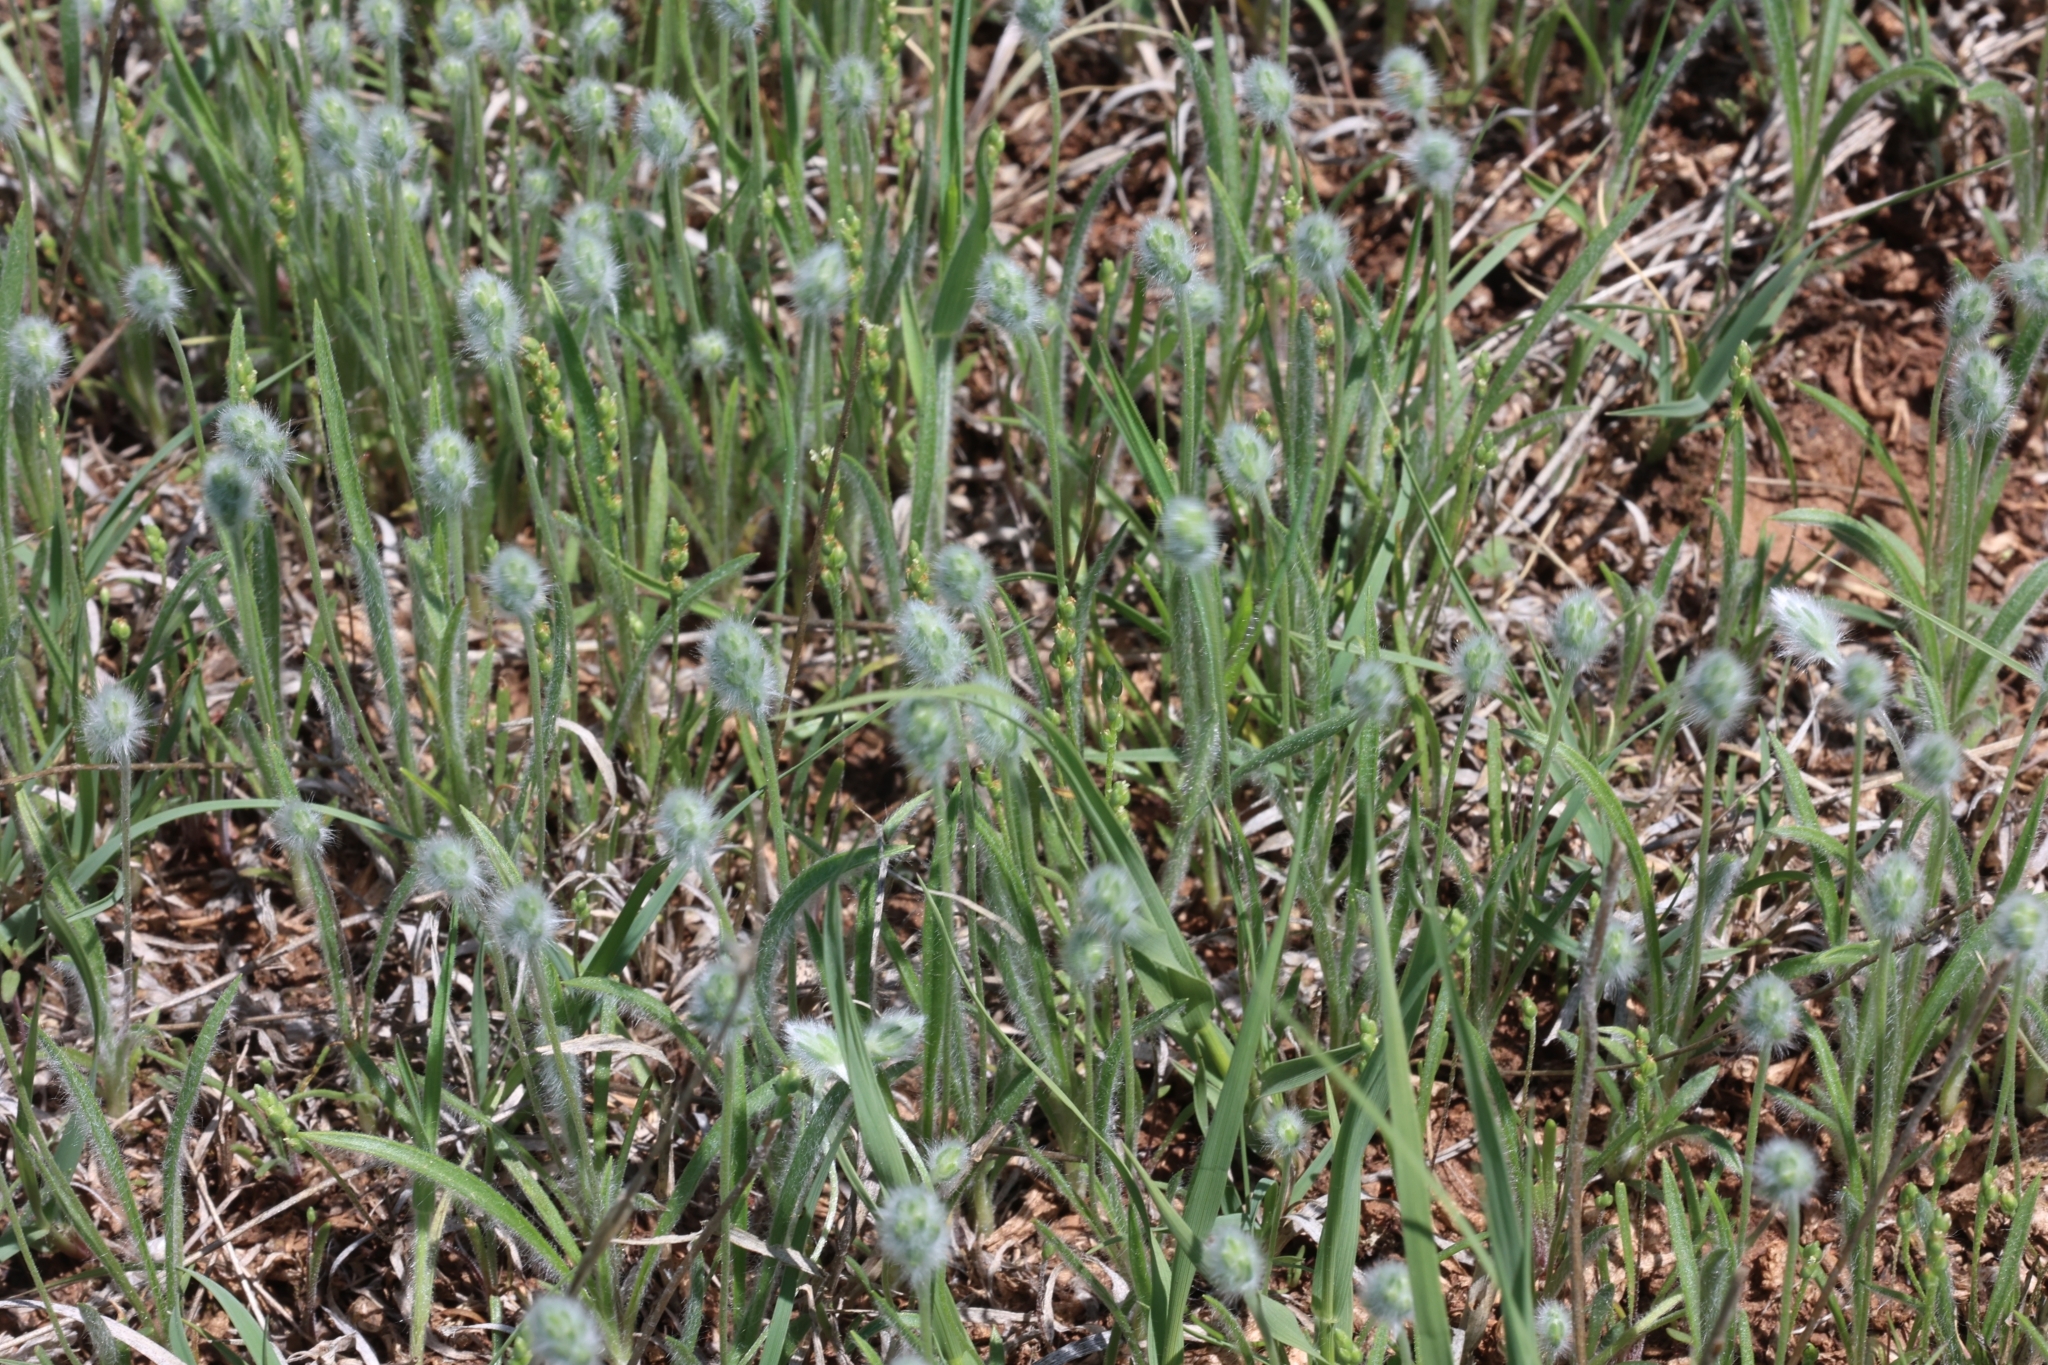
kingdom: Plantae
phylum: Tracheophyta
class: Magnoliopsida
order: Lamiales
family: Plantaginaceae
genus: Plantago
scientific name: Plantago patagonica
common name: Patagonia indian-wheat
